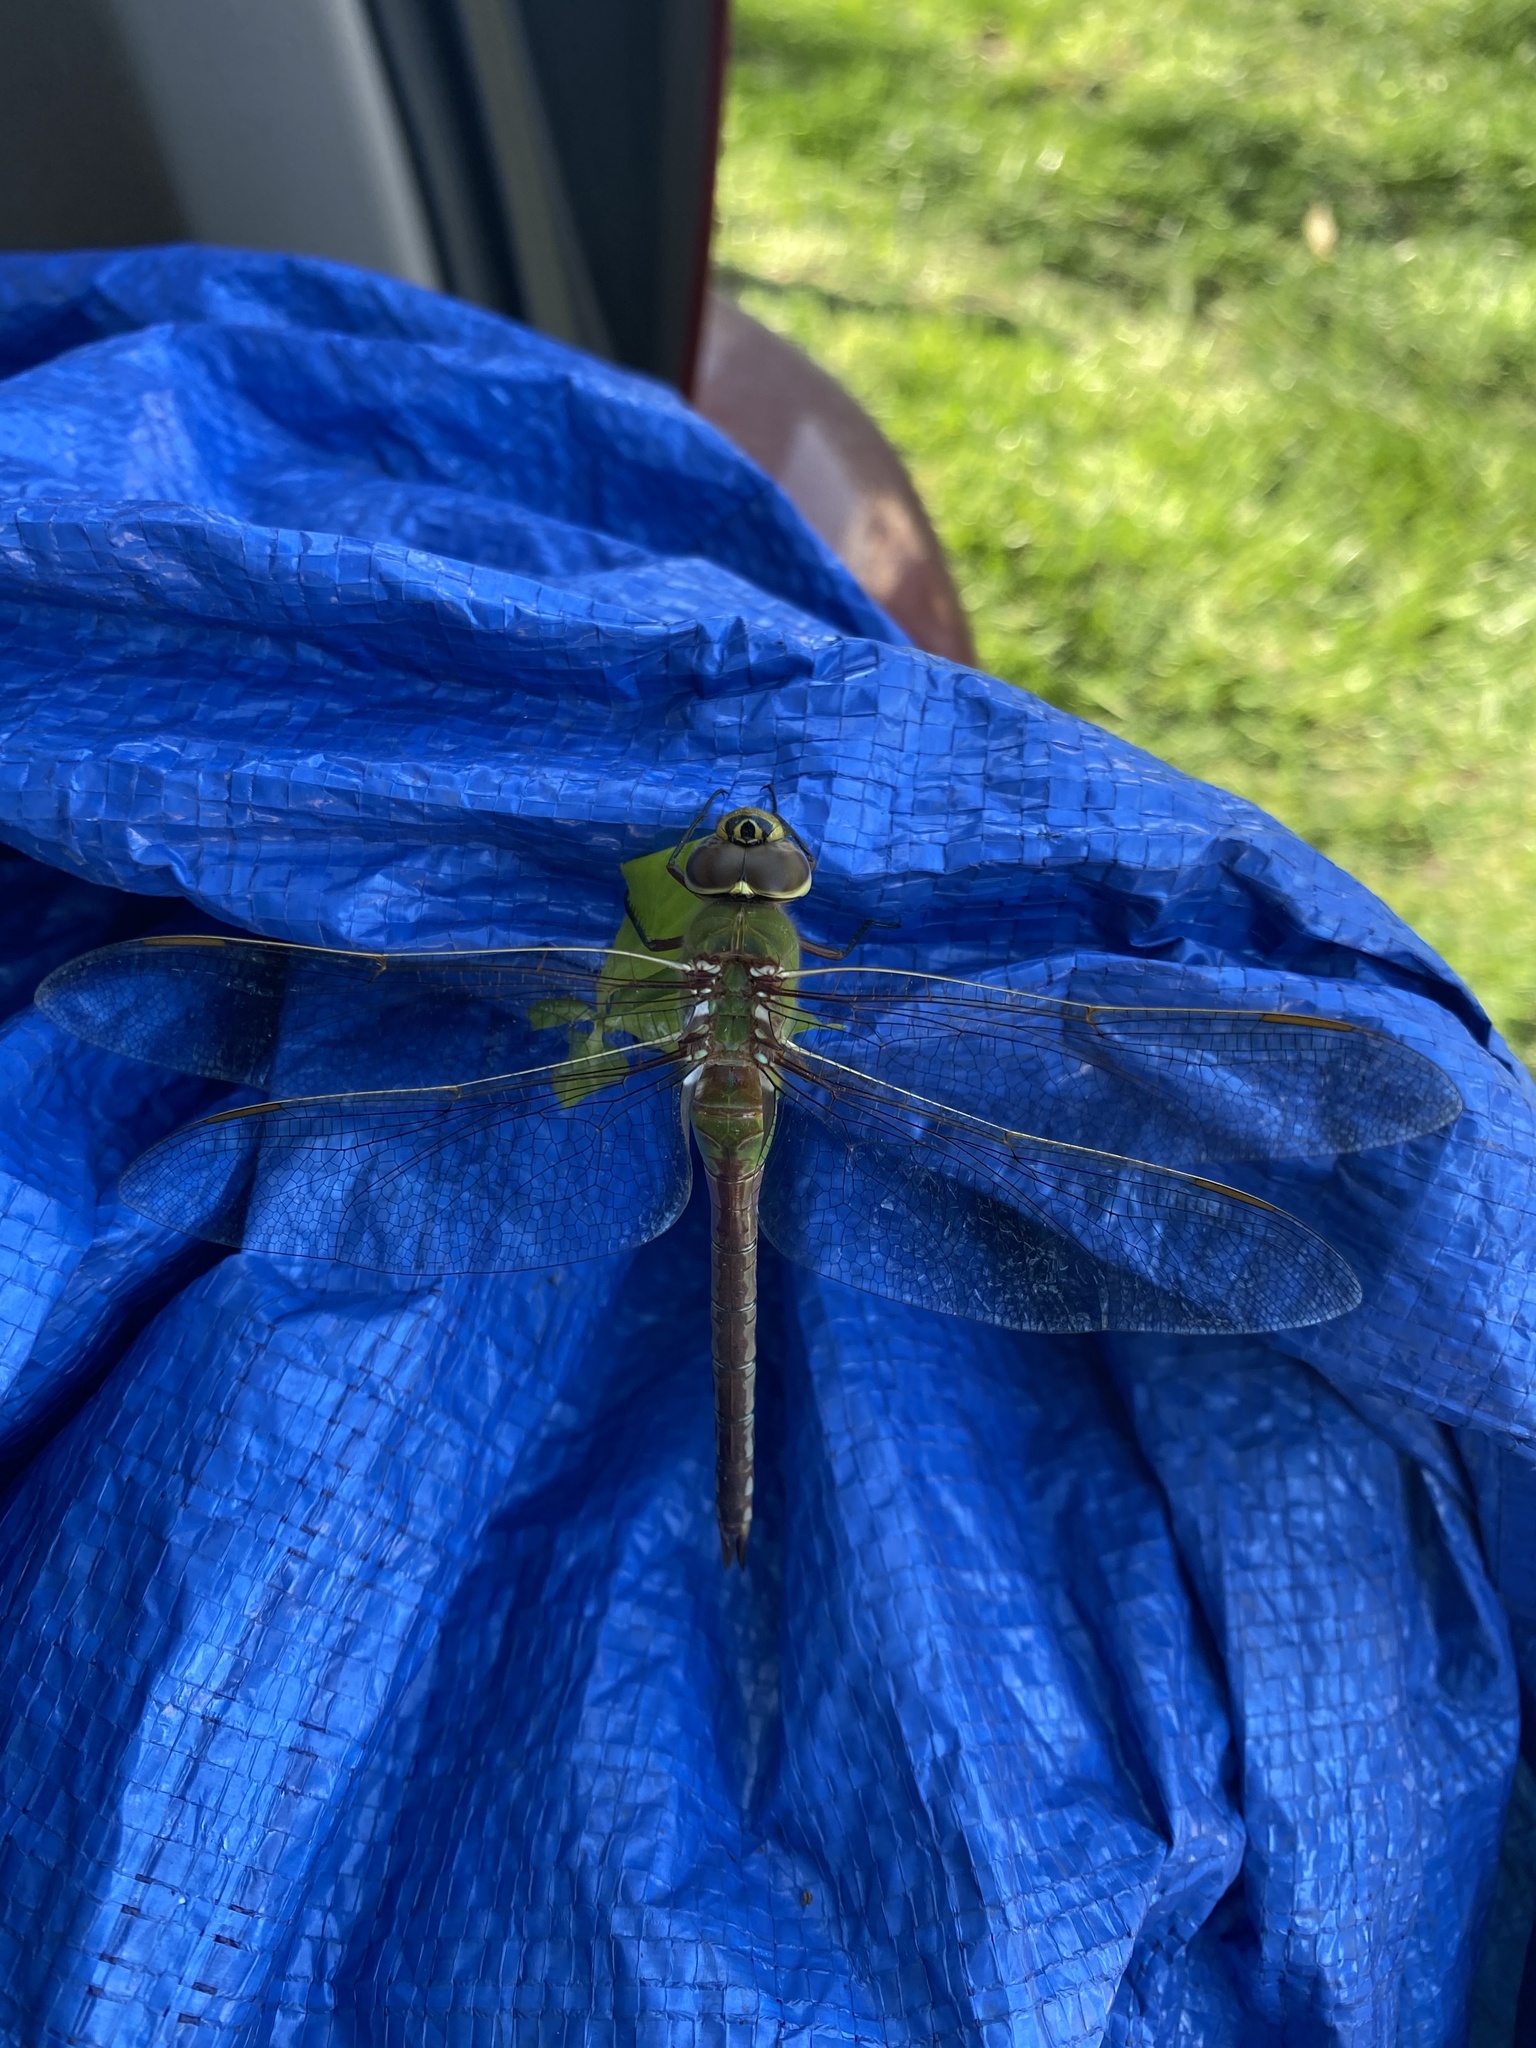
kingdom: Animalia
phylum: Arthropoda
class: Insecta
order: Odonata
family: Aeshnidae
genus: Anax
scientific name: Anax junius
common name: Common green darner
